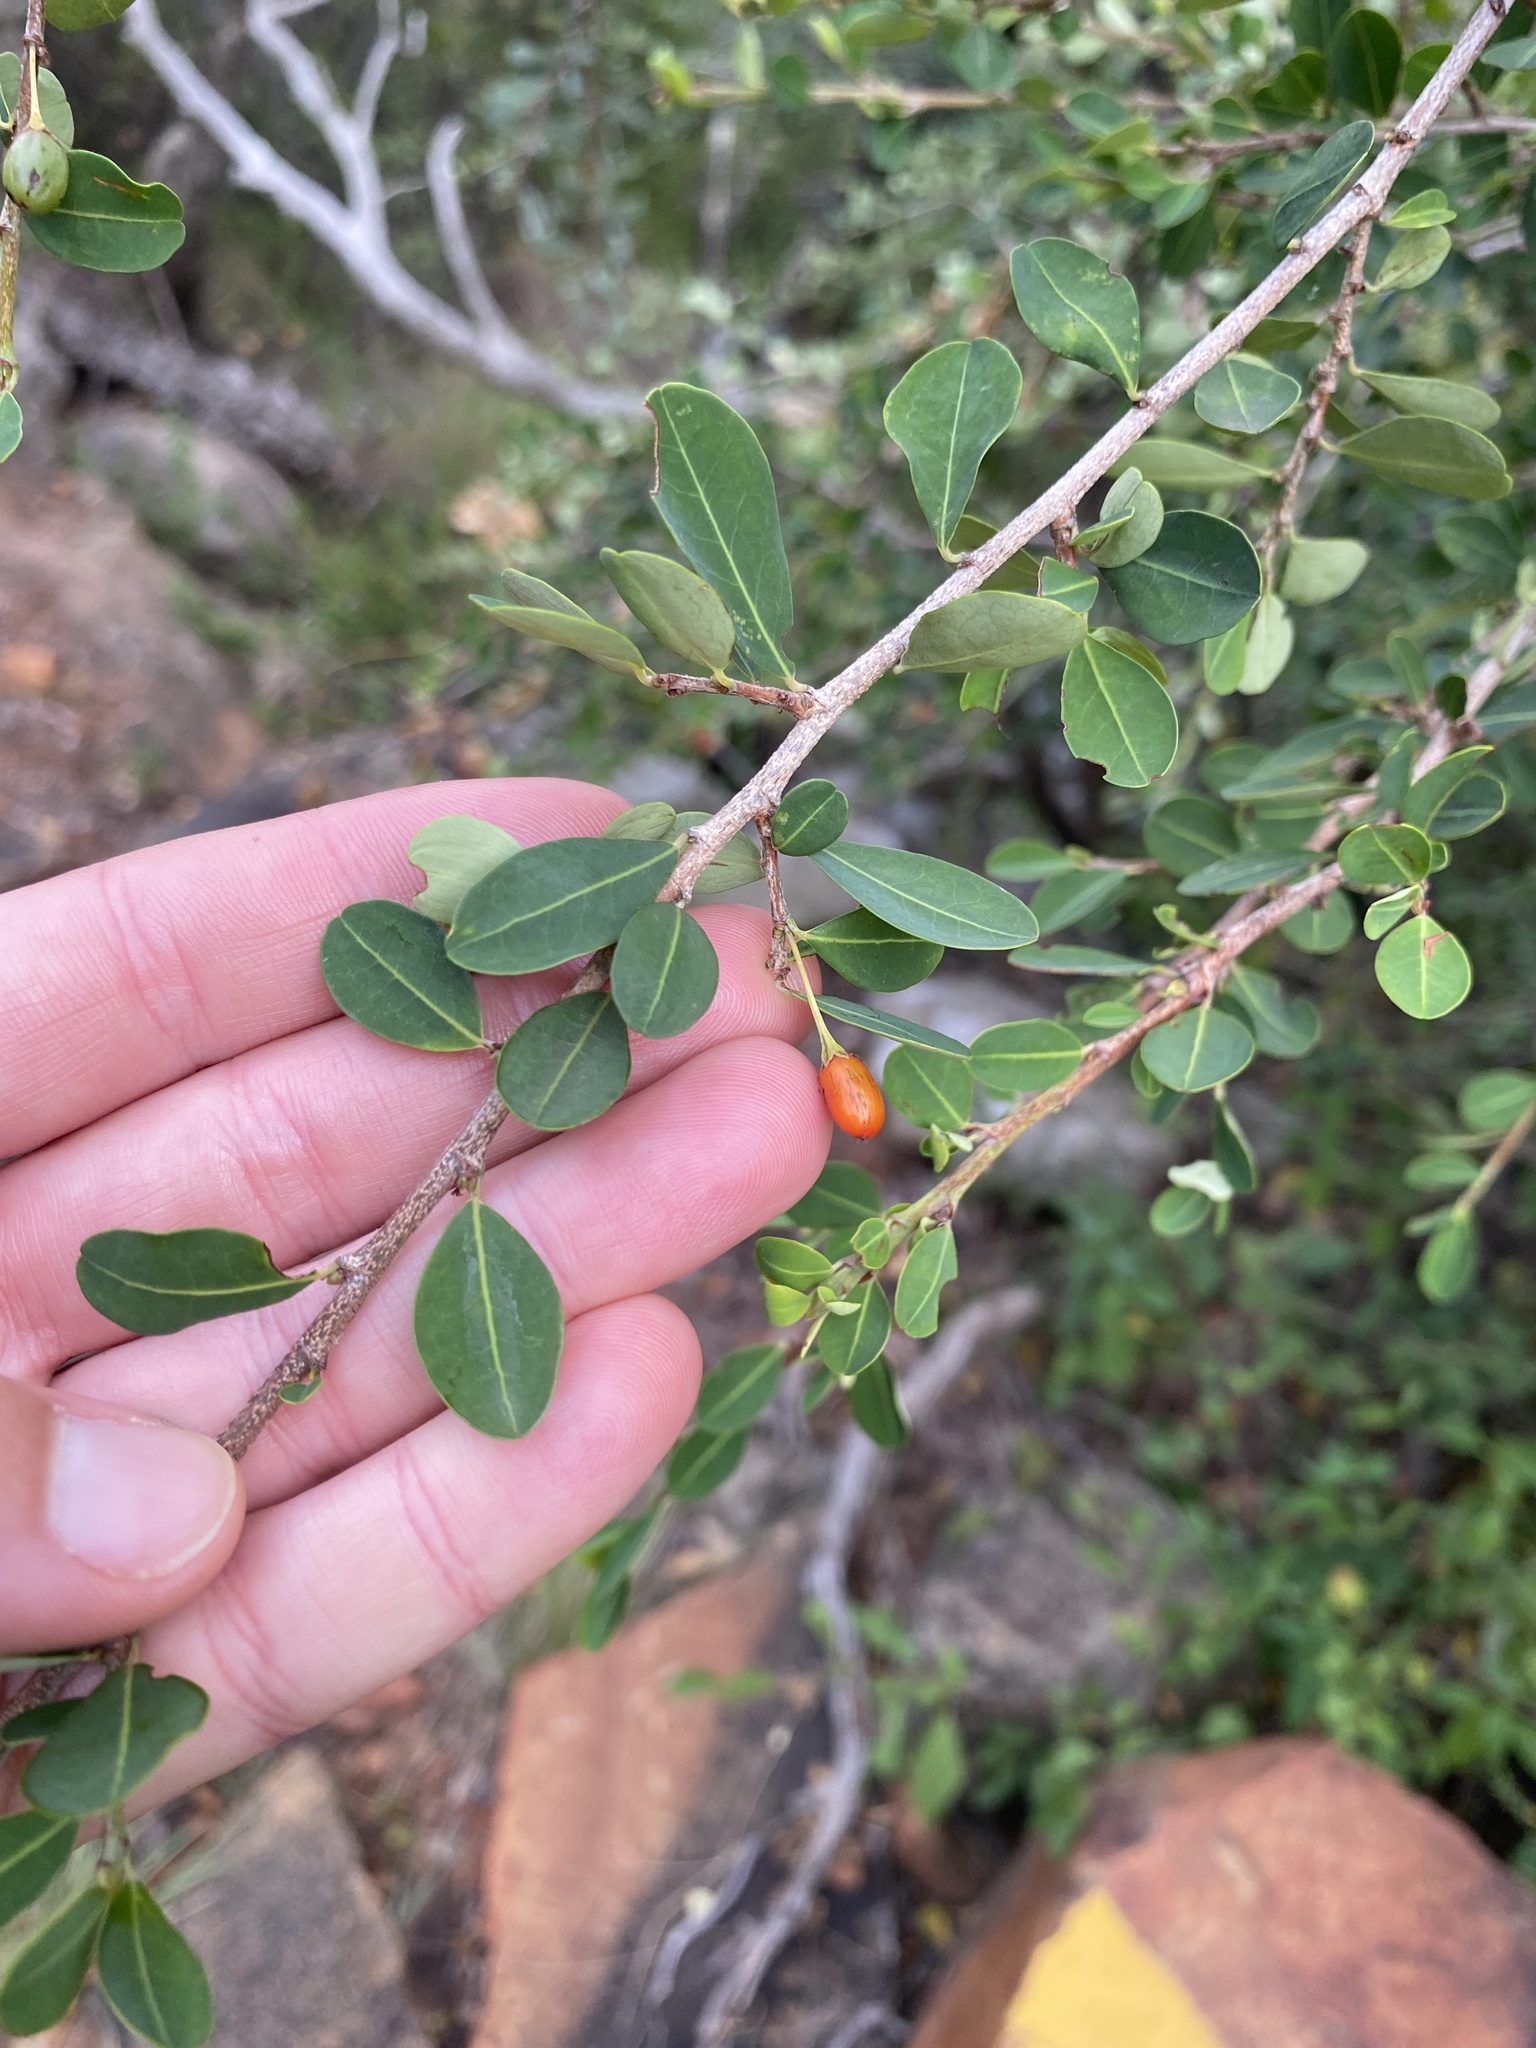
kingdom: Plantae
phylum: Tracheophyta
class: Magnoliopsida
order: Malpighiales
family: Erythroxylaceae
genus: Erythroxylum
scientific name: Erythroxylum delagoense
